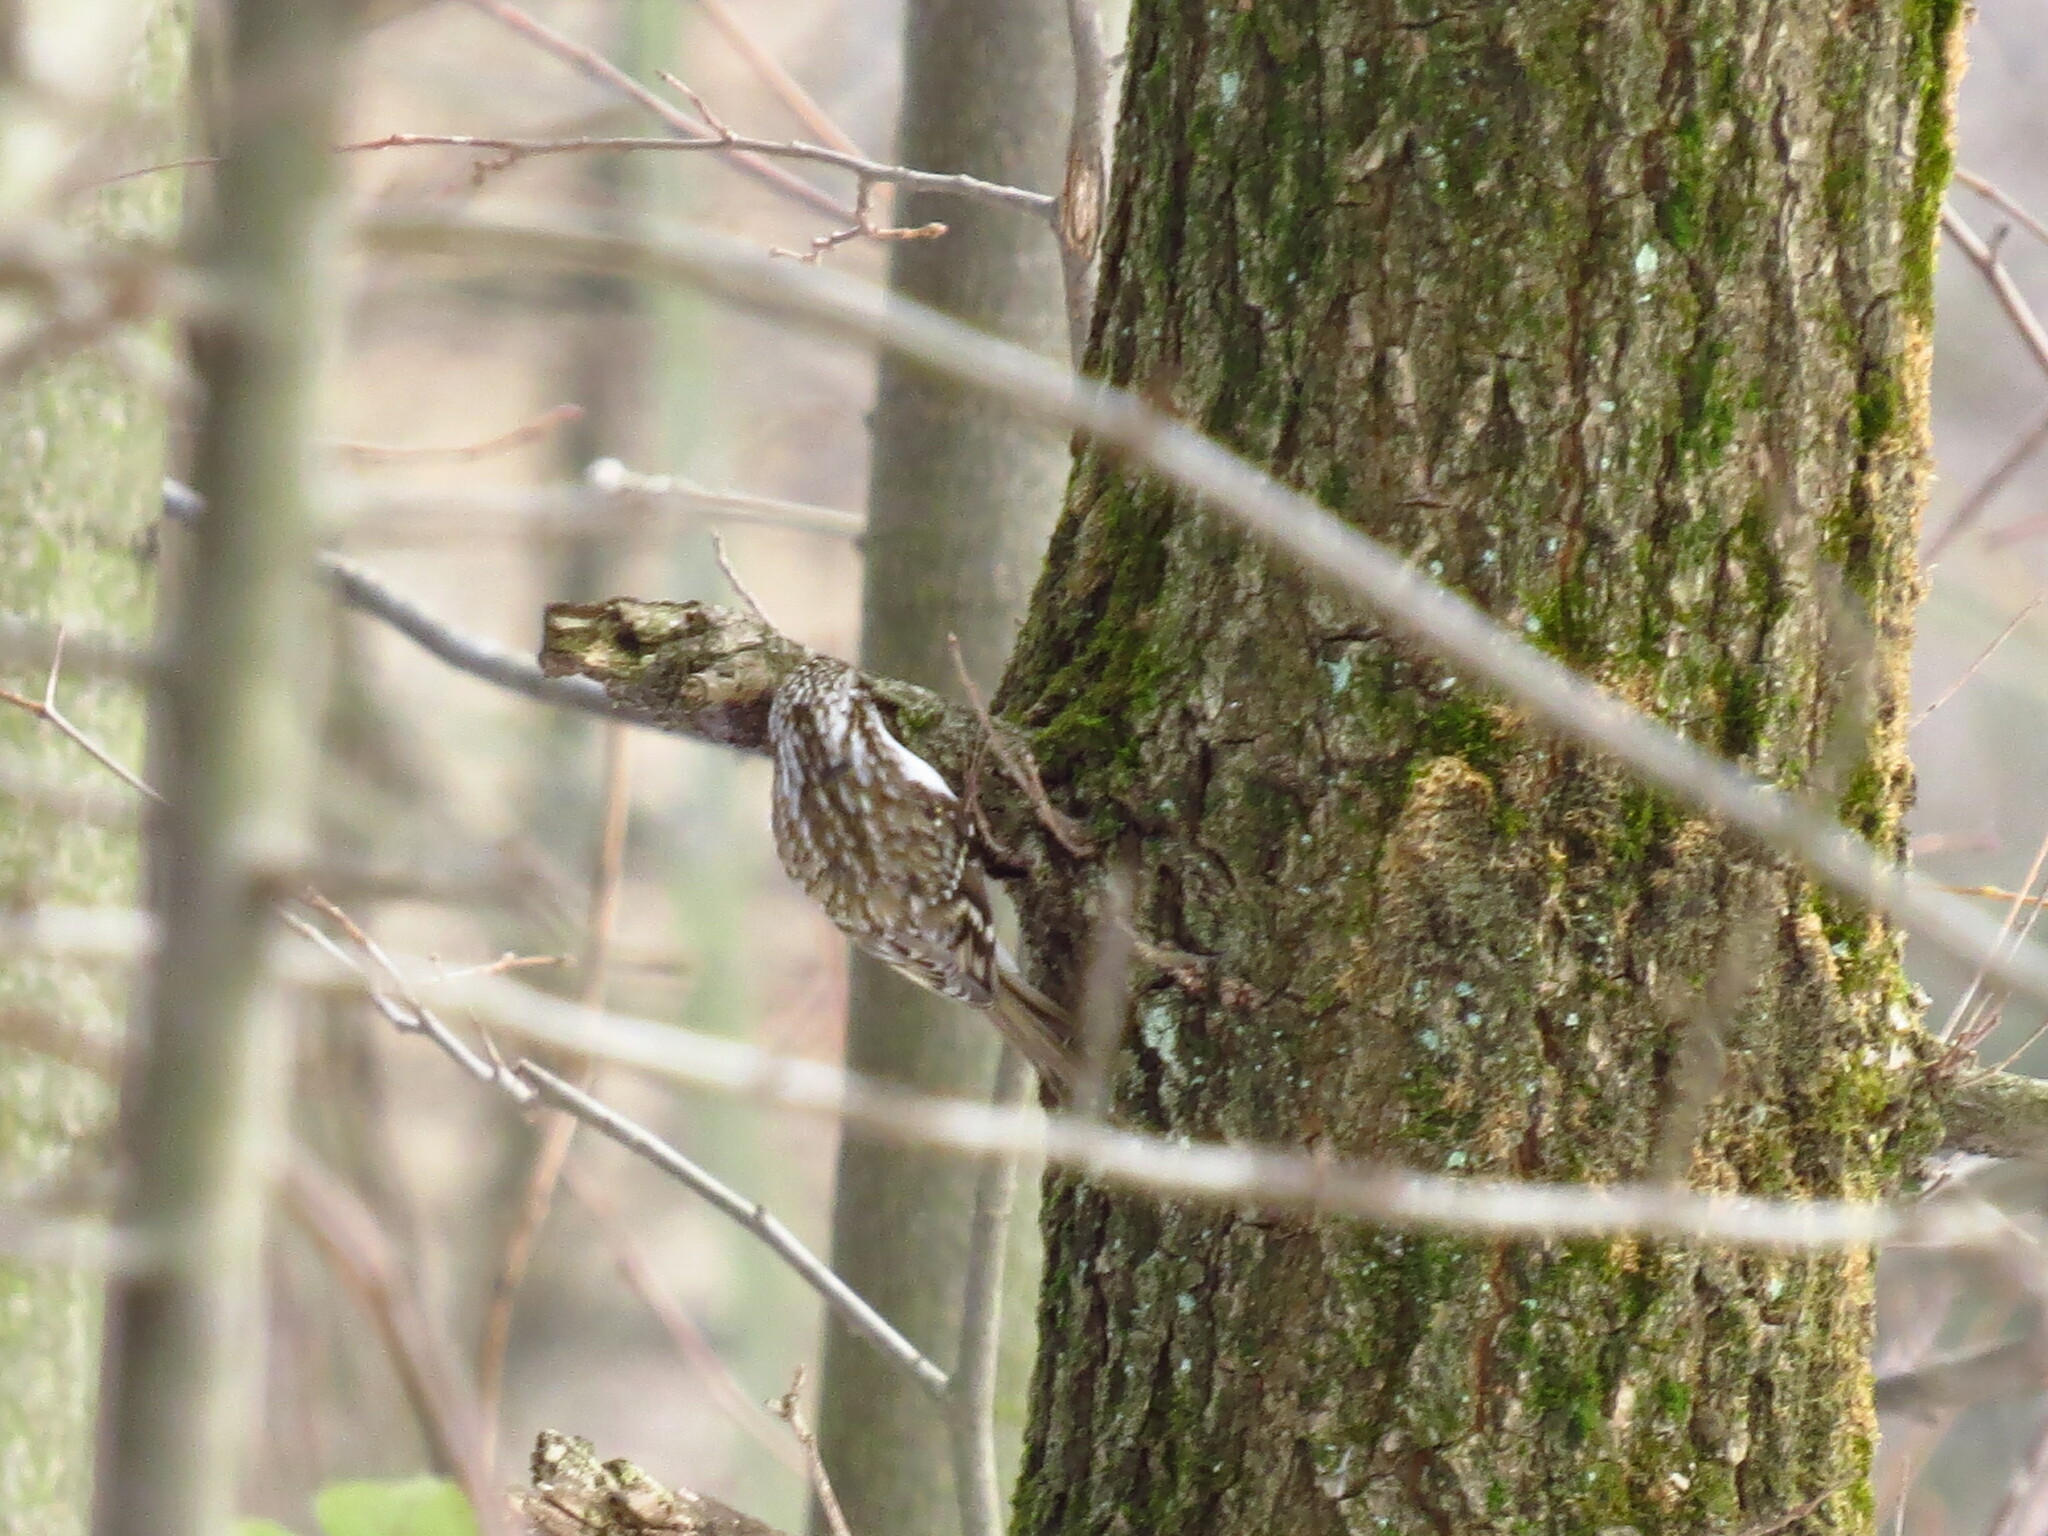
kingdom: Animalia
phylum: Chordata
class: Aves
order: Passeriformes
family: Certhiidae
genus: Certhia
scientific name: Certhia familiaris
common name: Eurasian treecreeper
